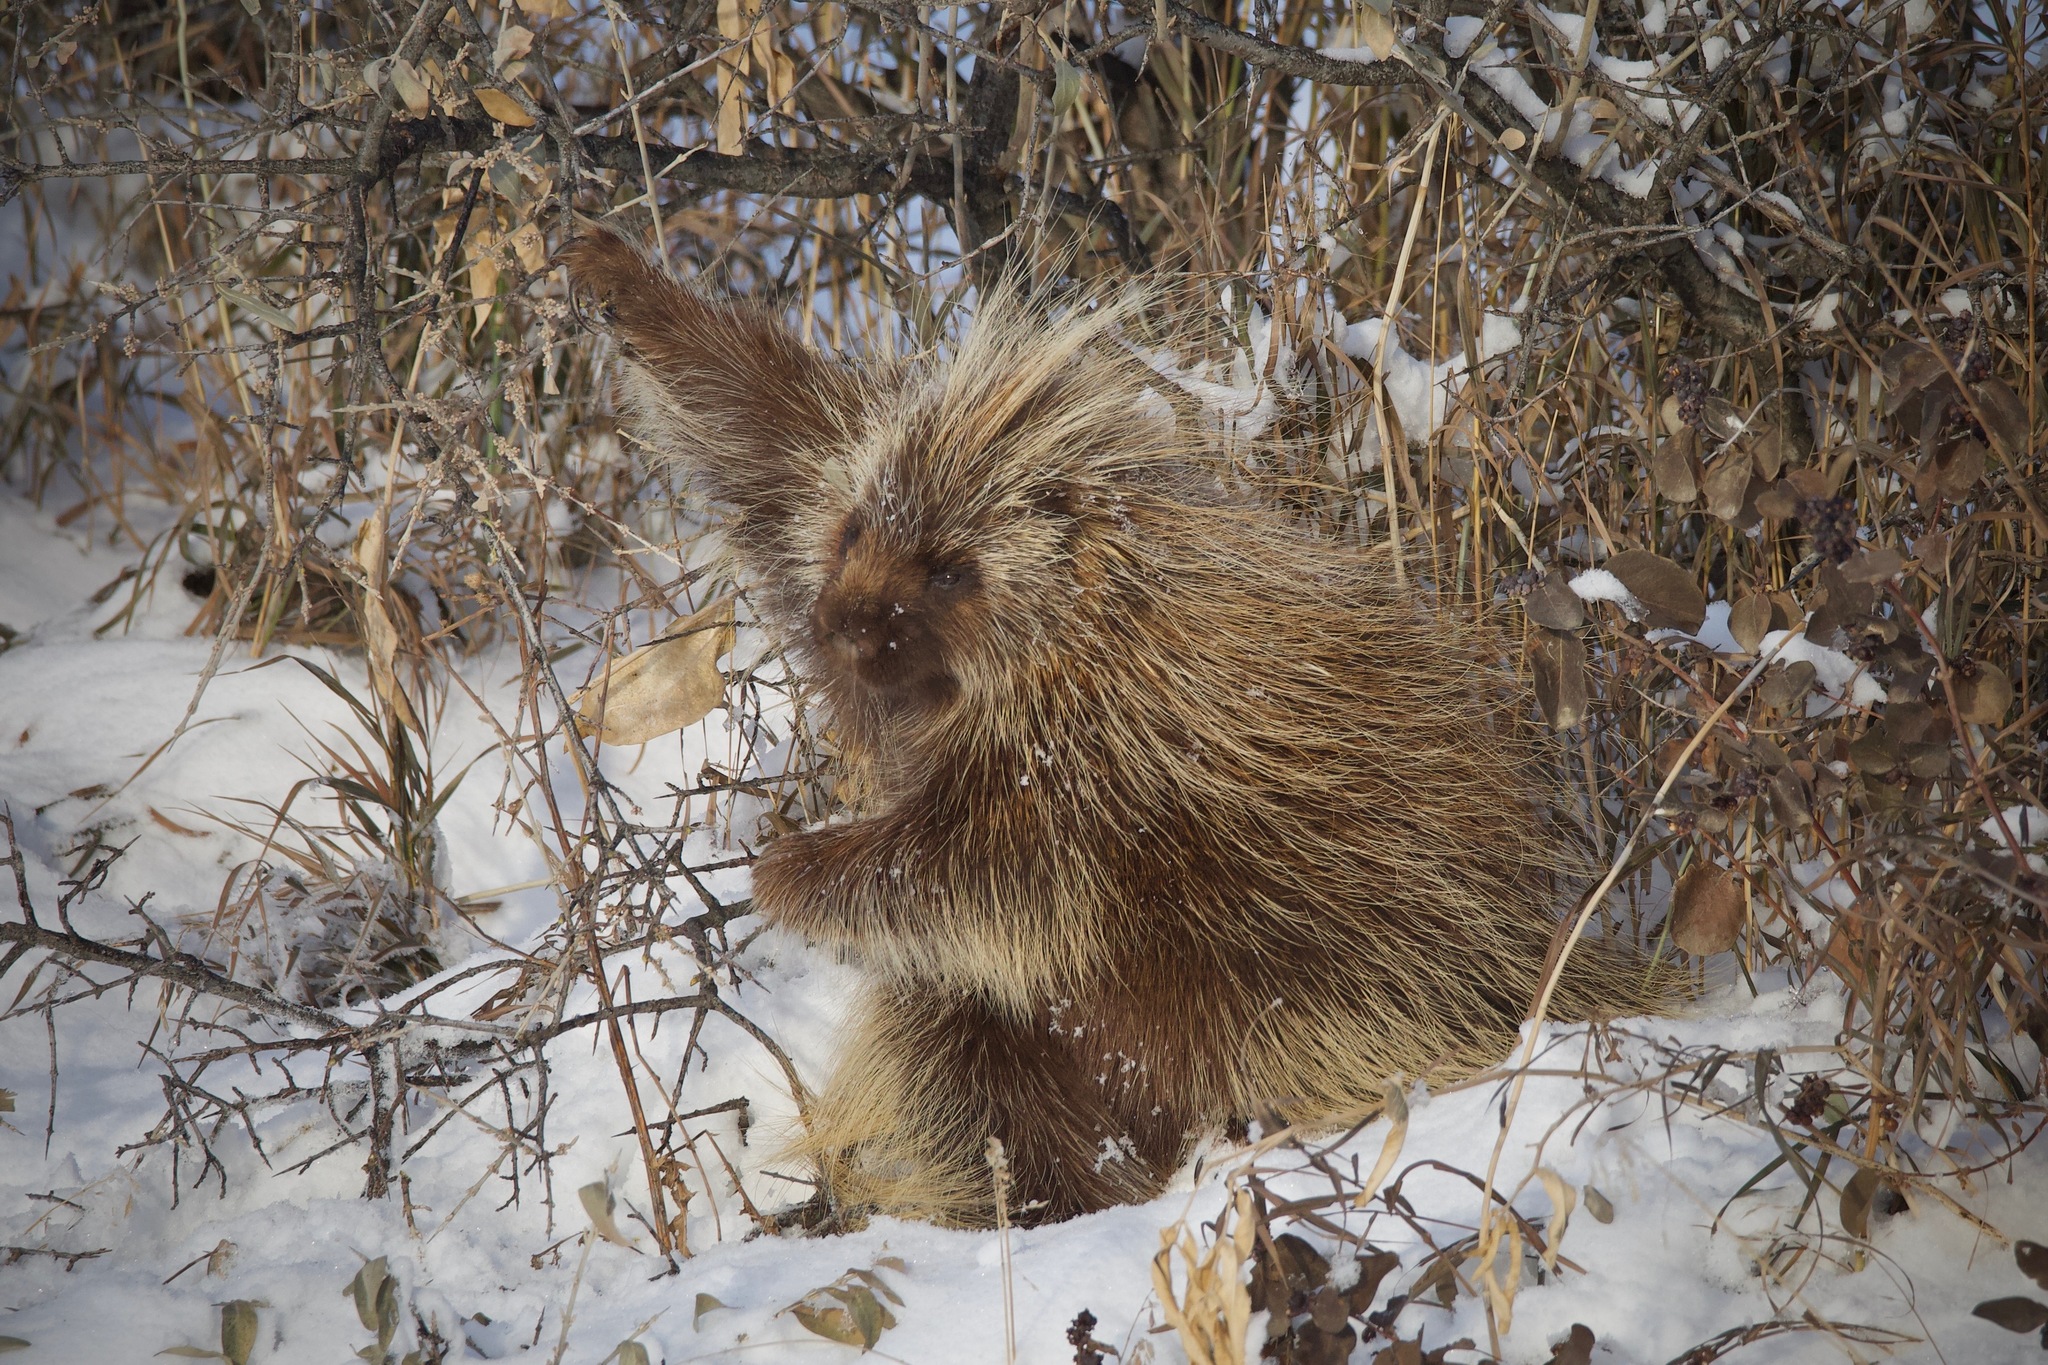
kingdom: Animalia
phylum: Chordata
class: Mammalia
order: Rodentia
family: Erethizontidae
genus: Erethizon
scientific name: Erethizon dorsatus
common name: North american porcupine
